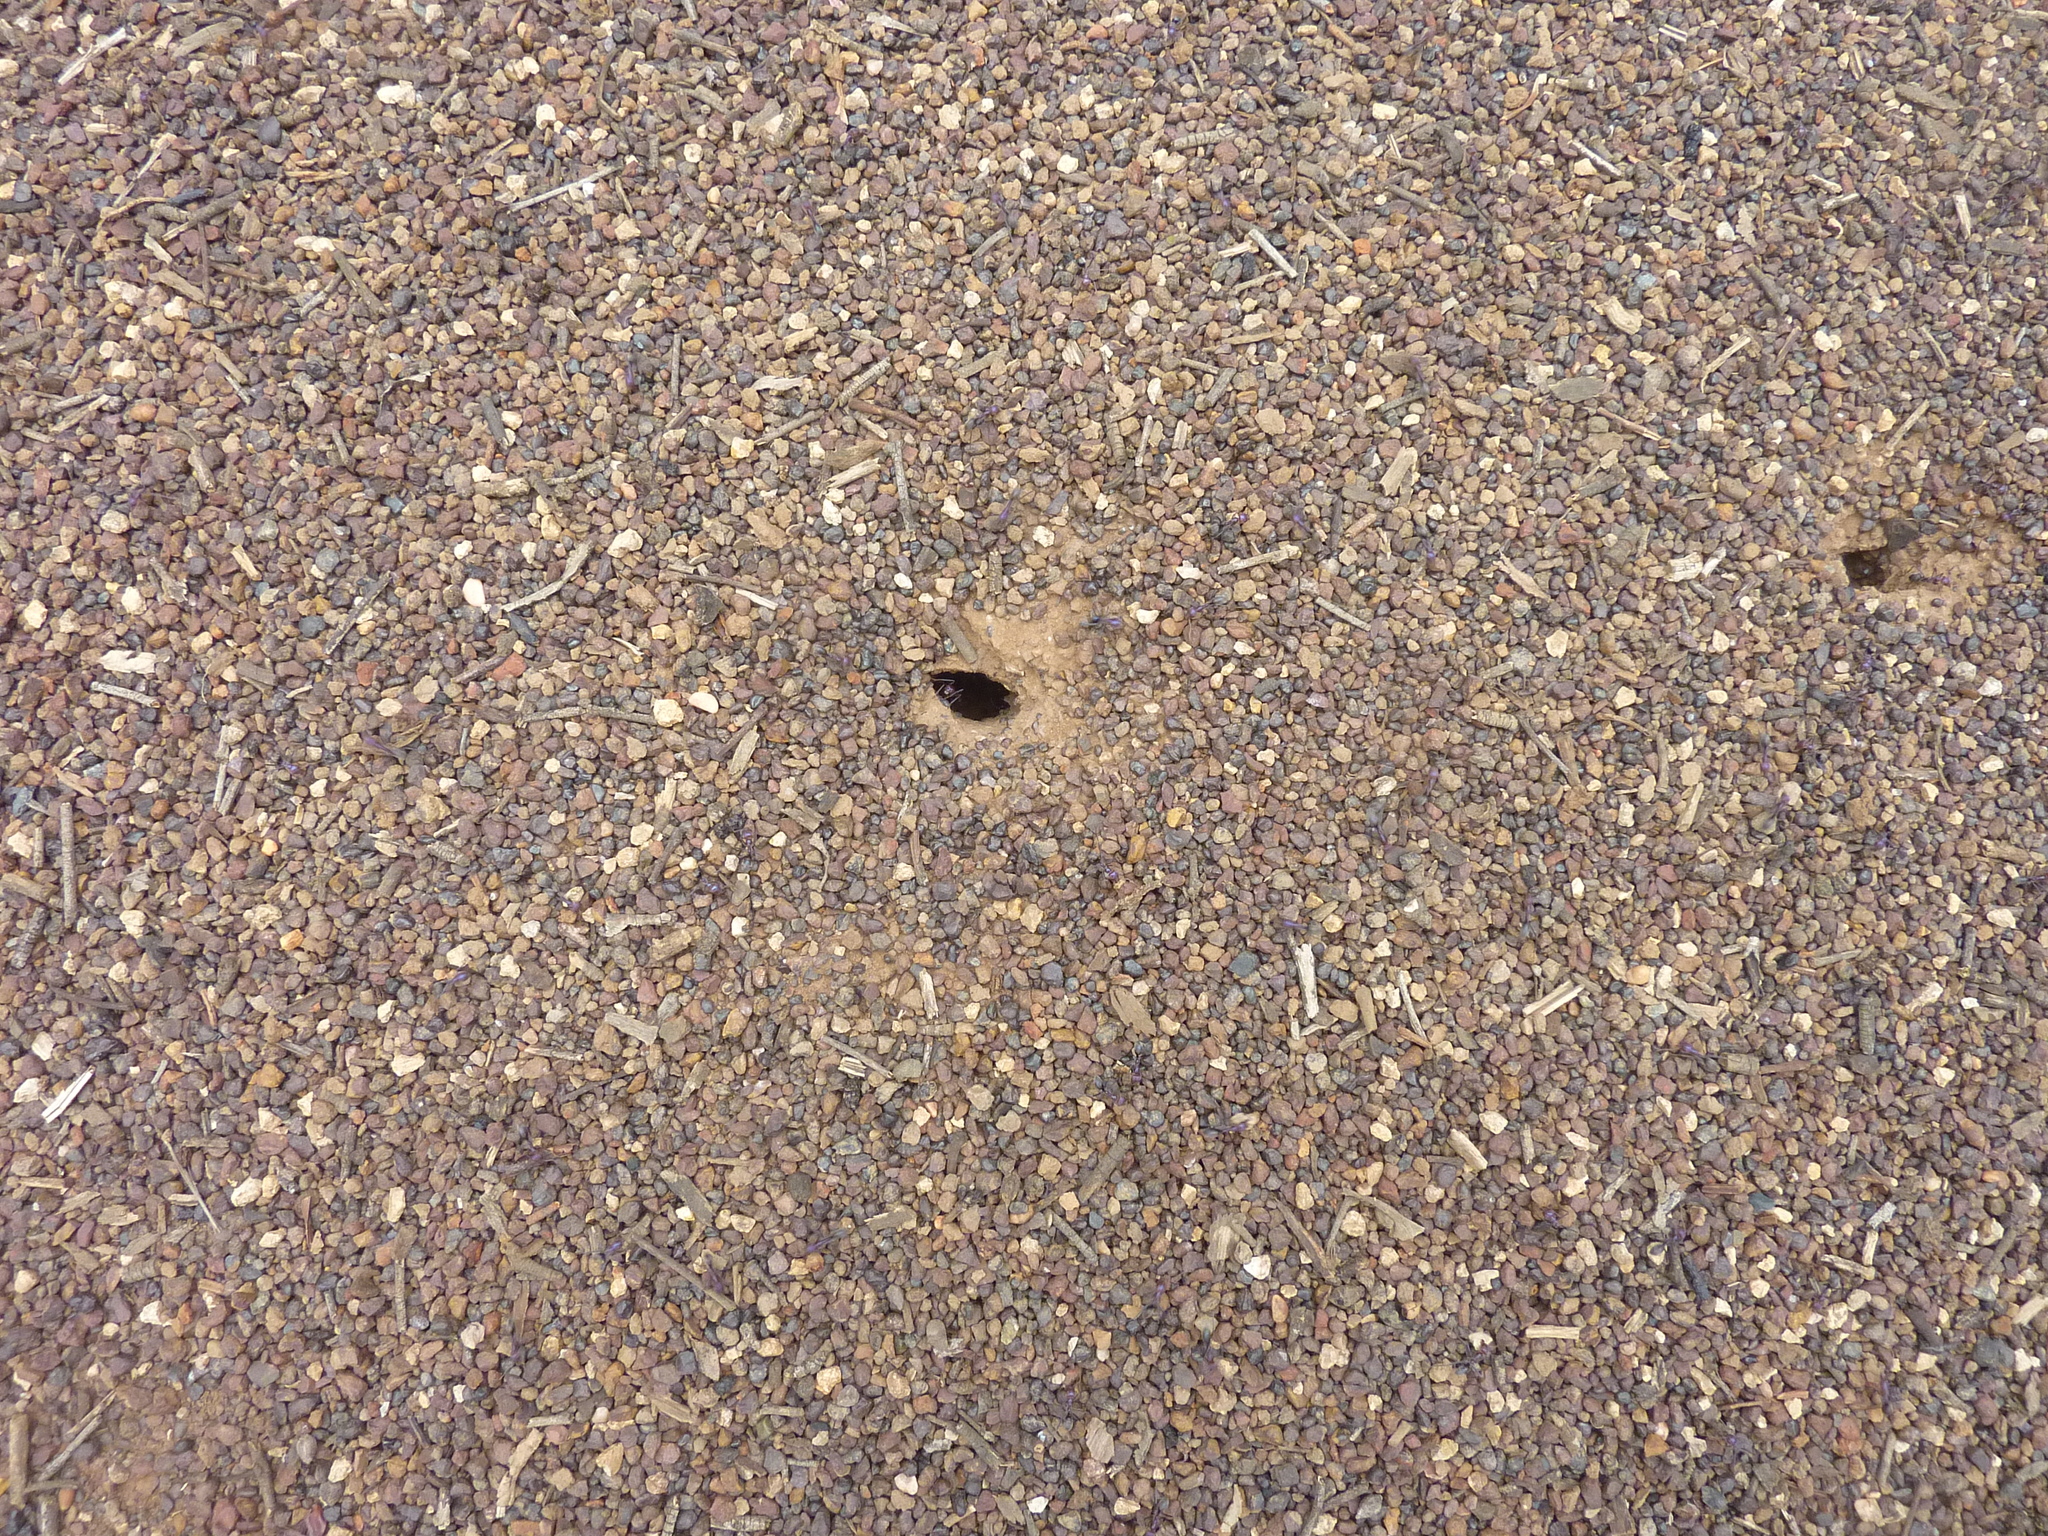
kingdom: Animalia
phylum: Arthropoda
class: Insecta
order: Hymenoptera
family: Formicidae
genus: Iridomyrmex
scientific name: Iridomyrmex purpureus
